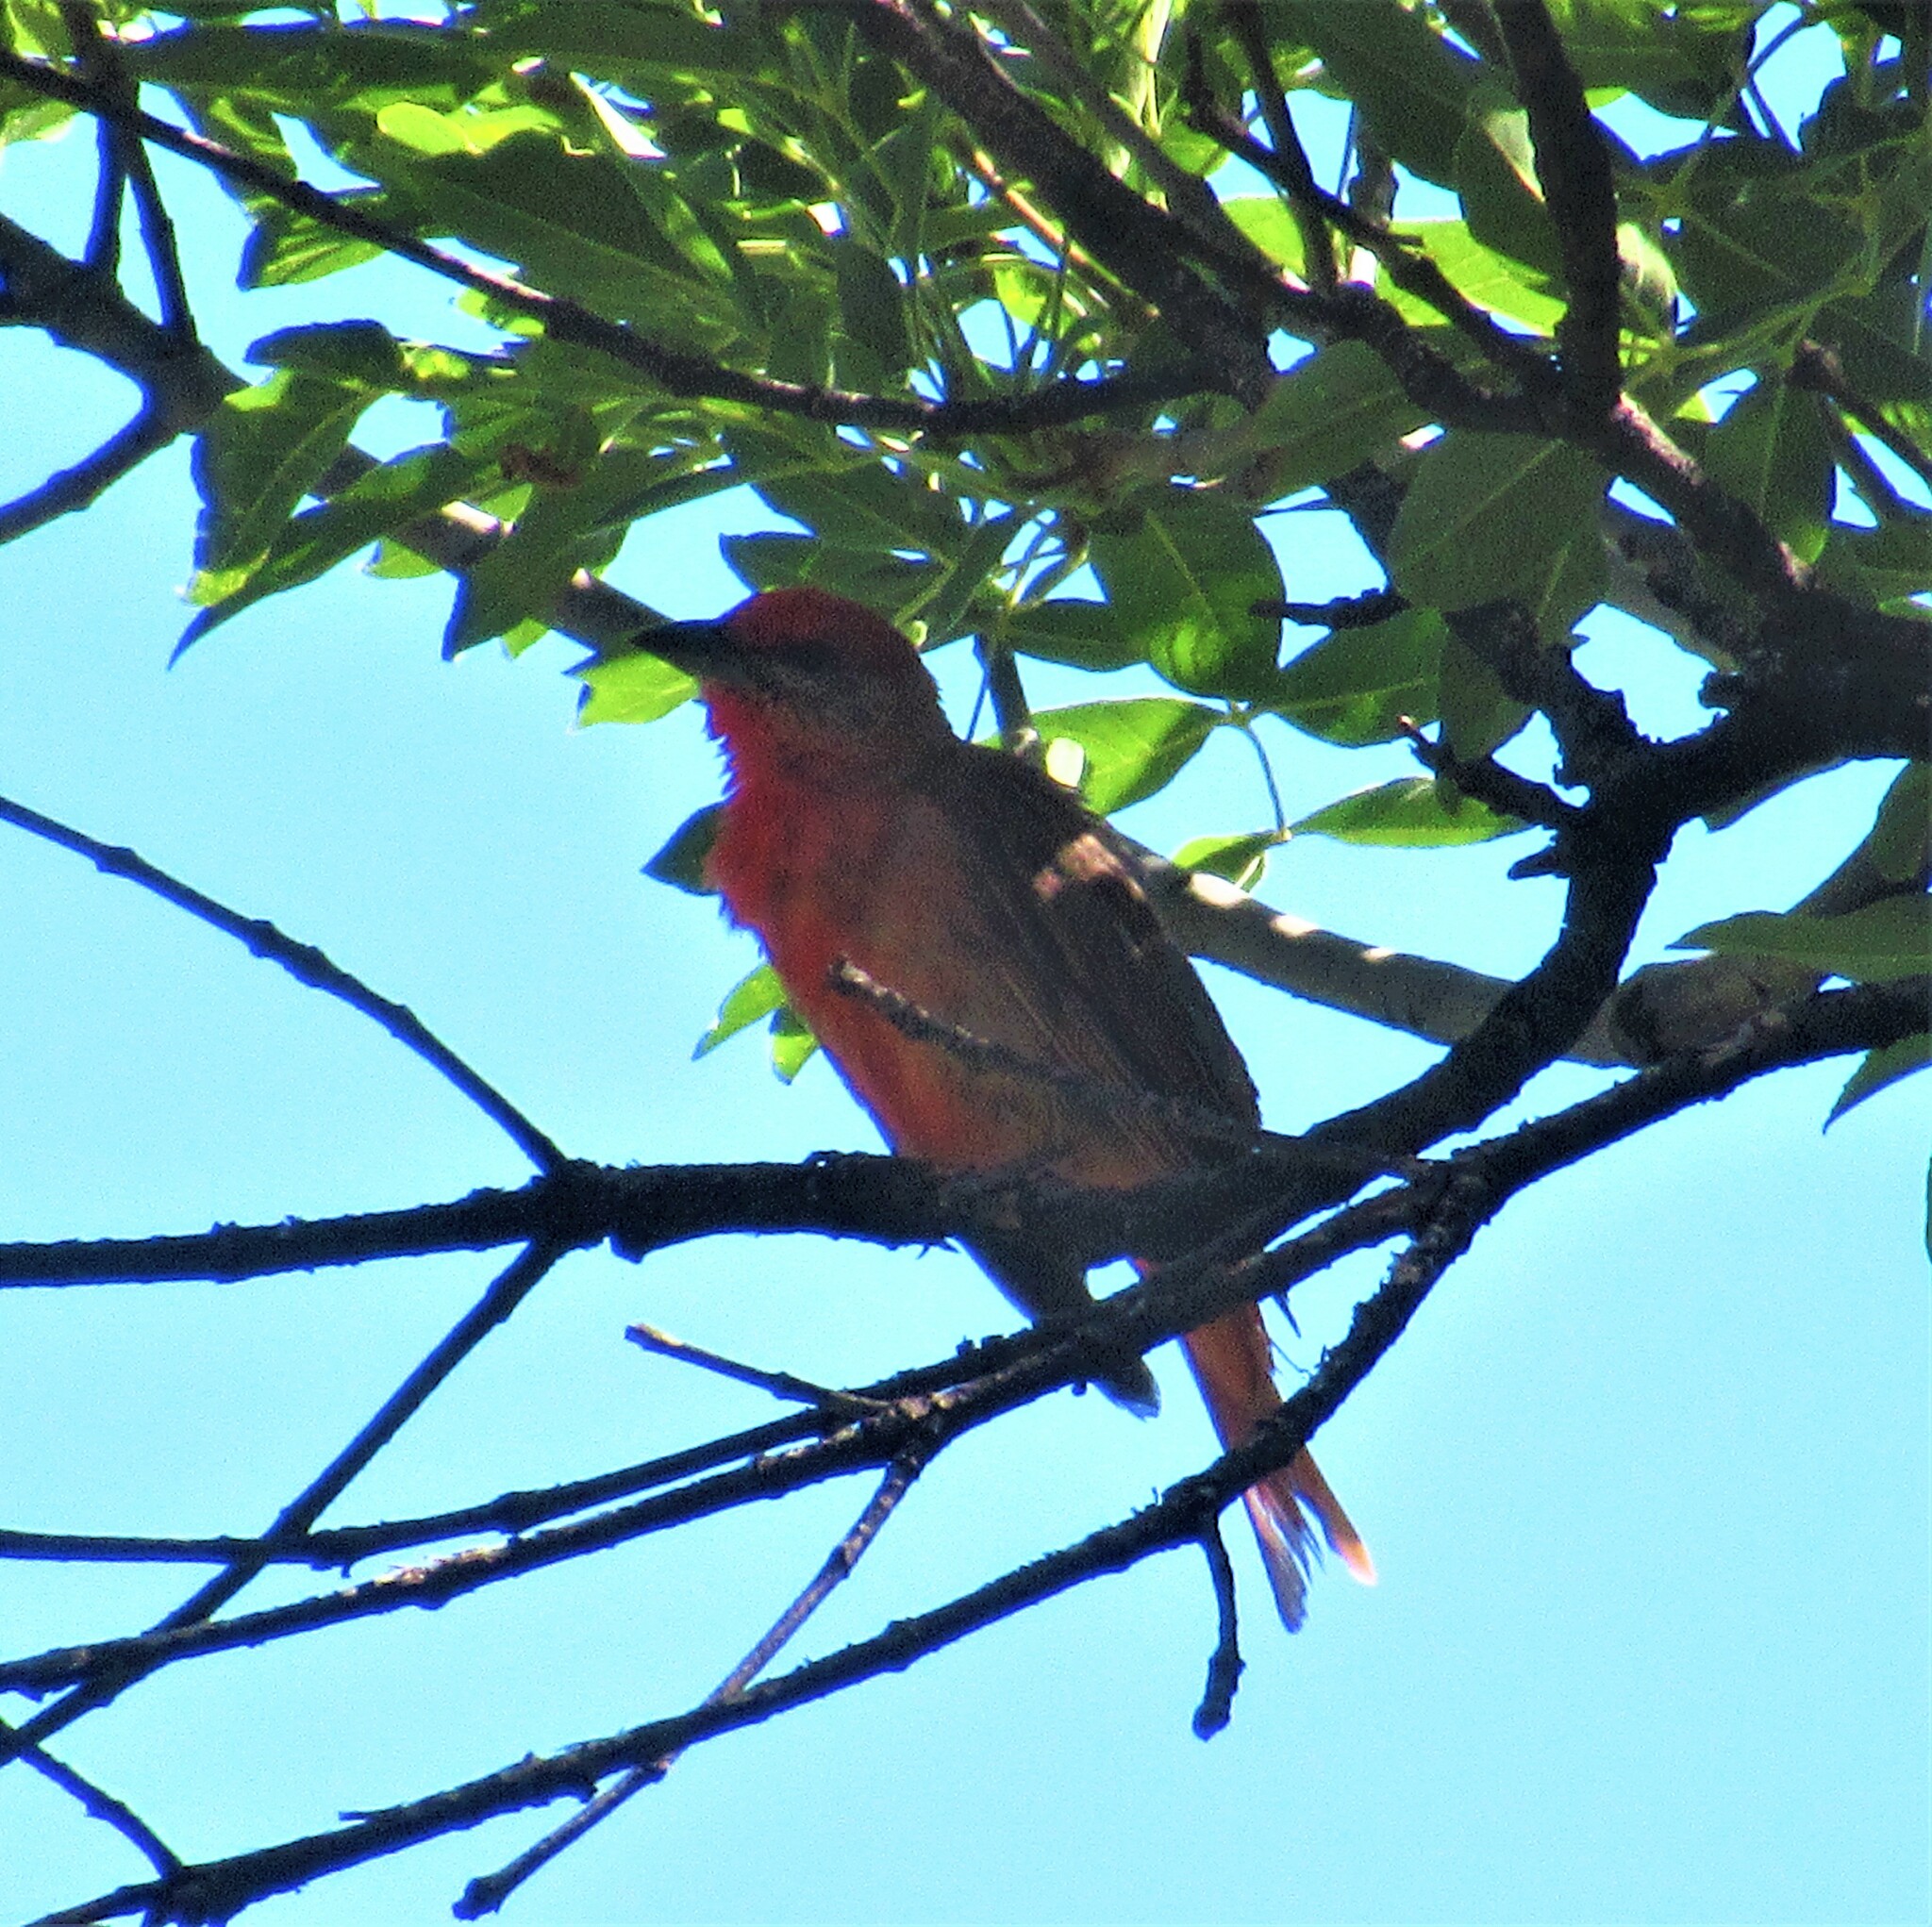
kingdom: Animalia
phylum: Chordata
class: Aves
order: Passeriformes
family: Cardinalidae
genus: Piranga
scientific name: Piranga flava
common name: Red tanager
